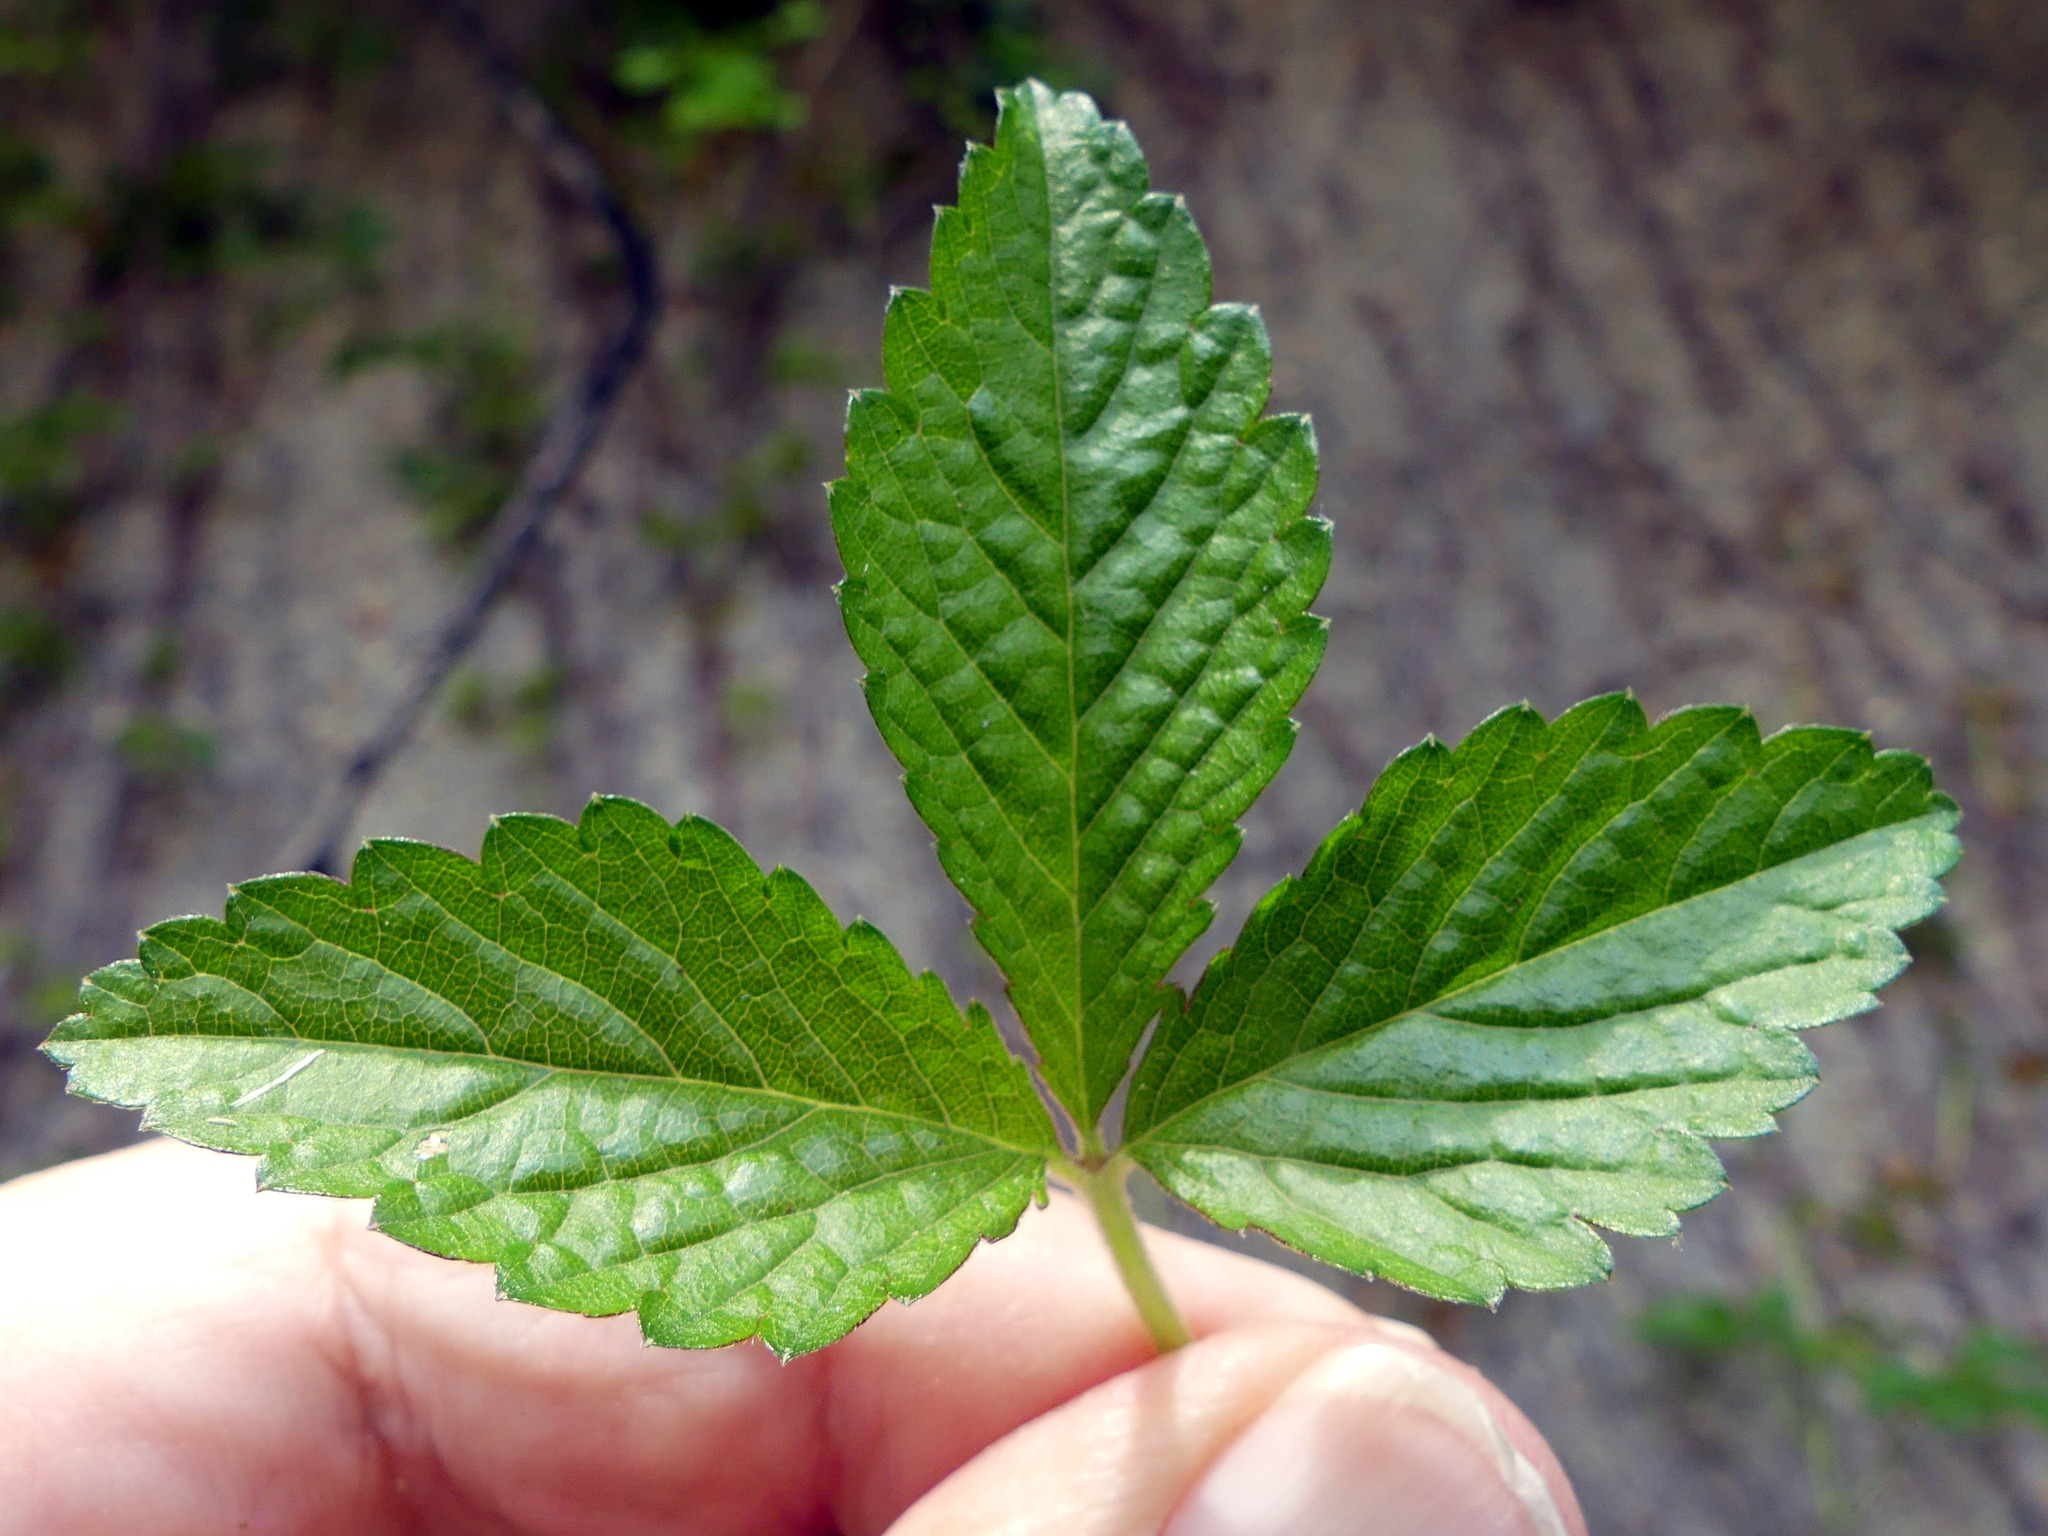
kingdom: Plantae
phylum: Tracheophyta
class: Magnoliopsida
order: Rosales
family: Rosaceae
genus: Potentilla
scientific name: Potentilla indica
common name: Yellow-flowered strawberry
